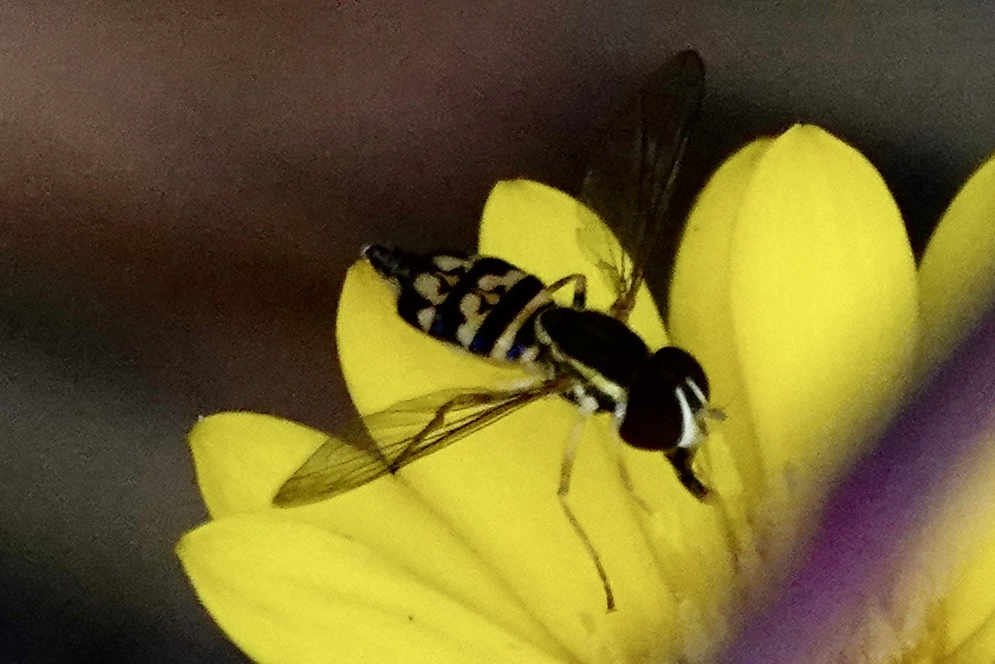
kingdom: Animalia
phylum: Arthropoda
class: Insecta
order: Diptera
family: Syrphidae
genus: Toxomerus
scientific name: Toxomerus geminatus
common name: Eastern calligrapher
